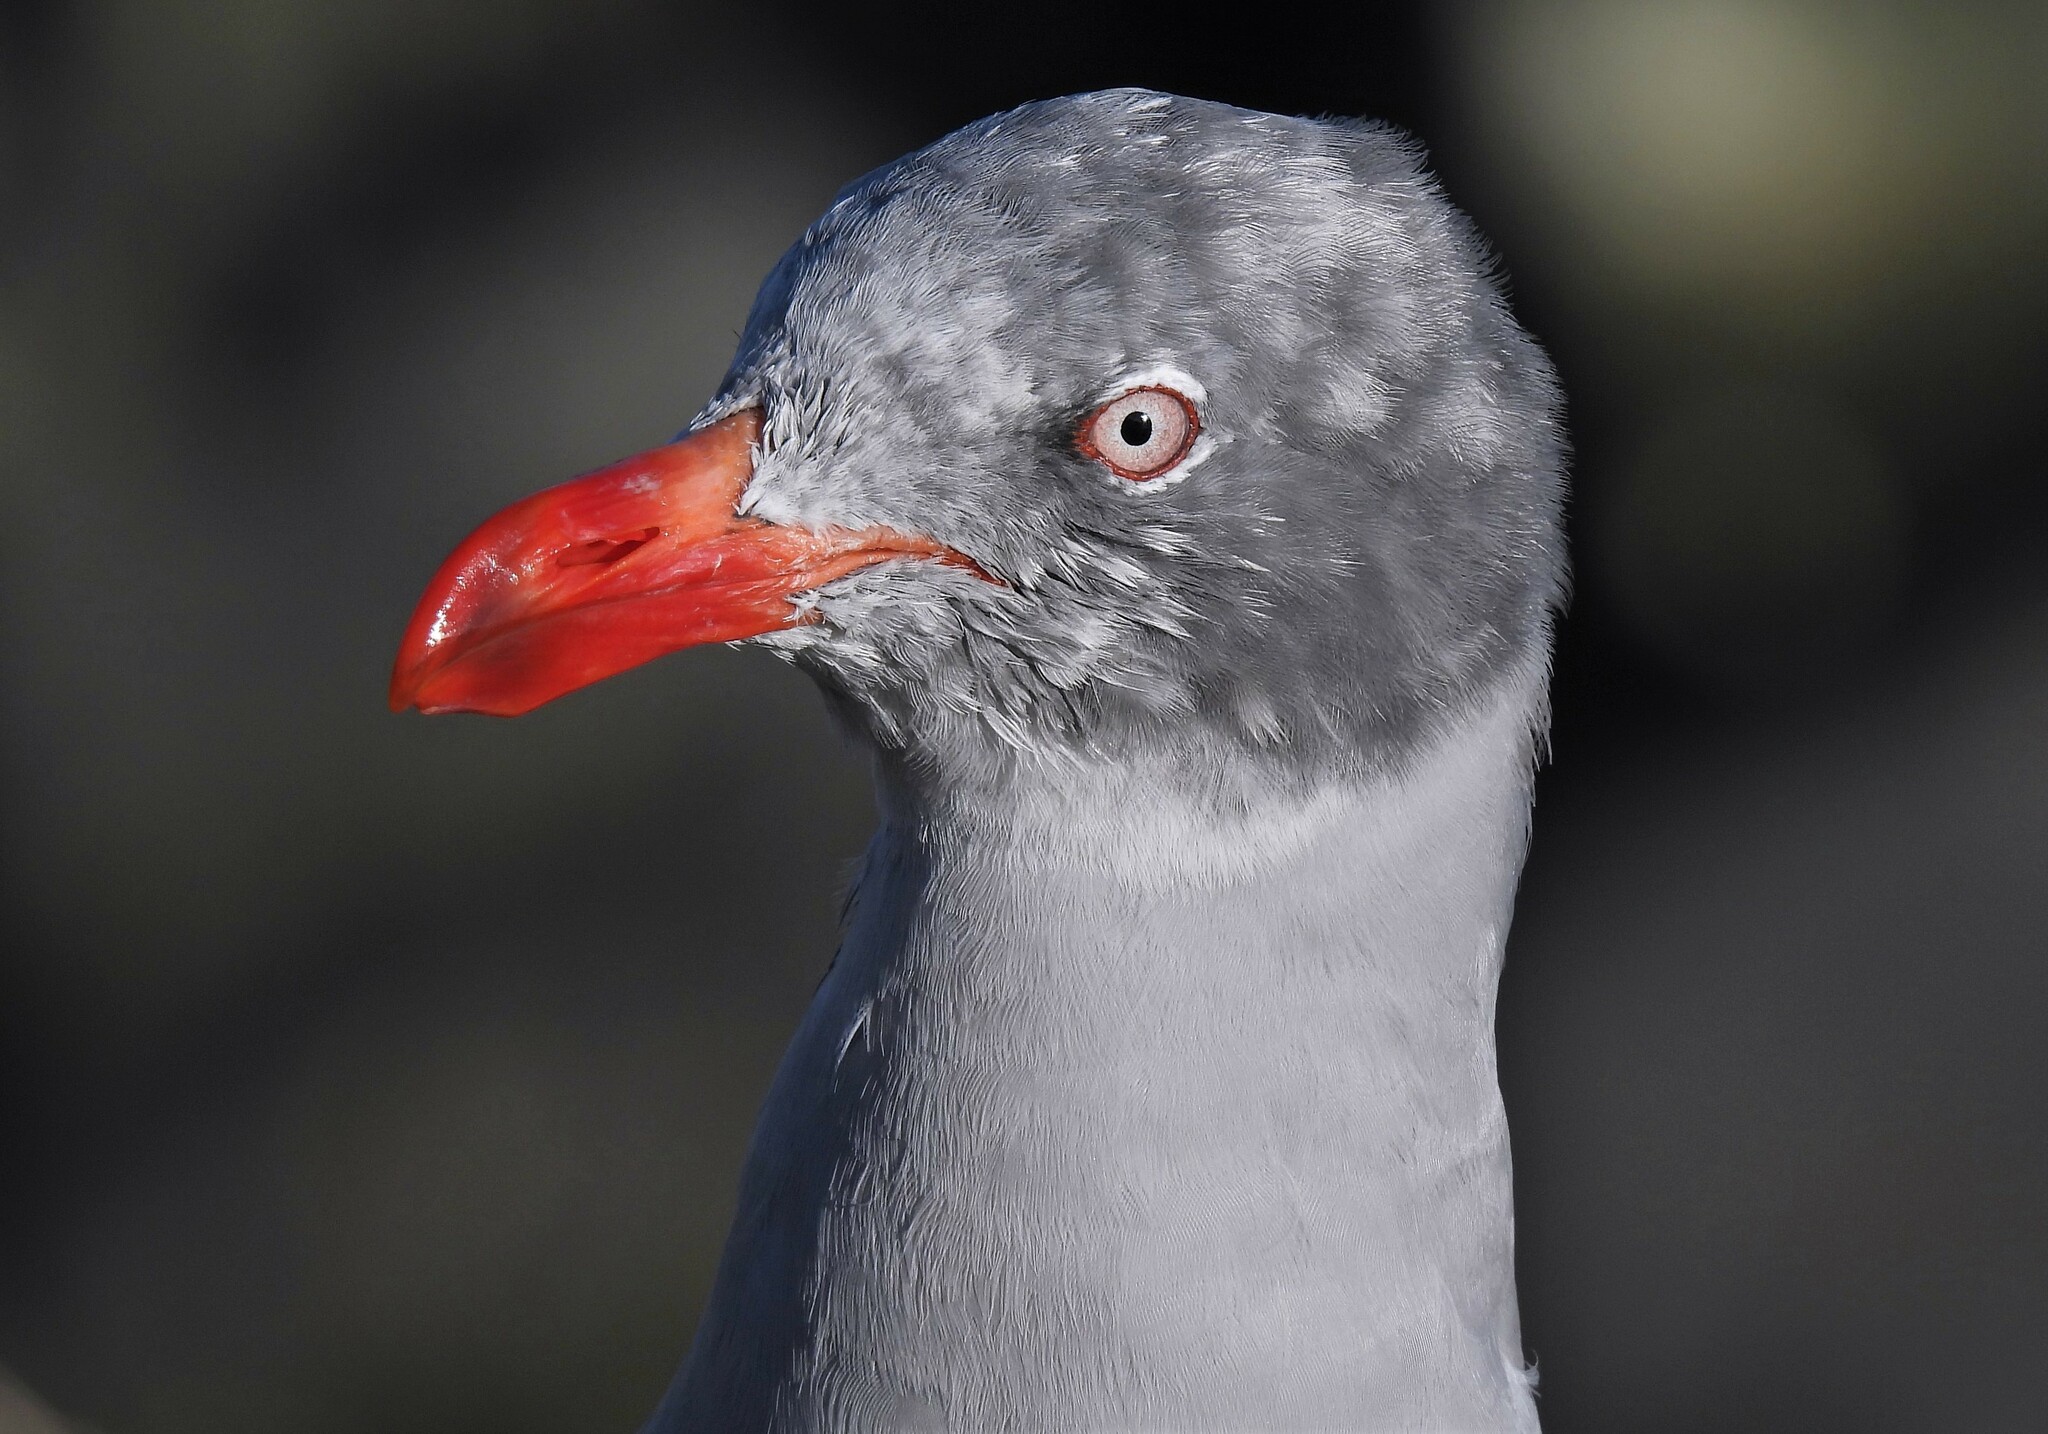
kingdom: Animalia
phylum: Chordata
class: Aves
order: Charadriiformes
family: Laridae
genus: Leucophaeus
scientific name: Leucophaeus scoresbii
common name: Dolphin gull
